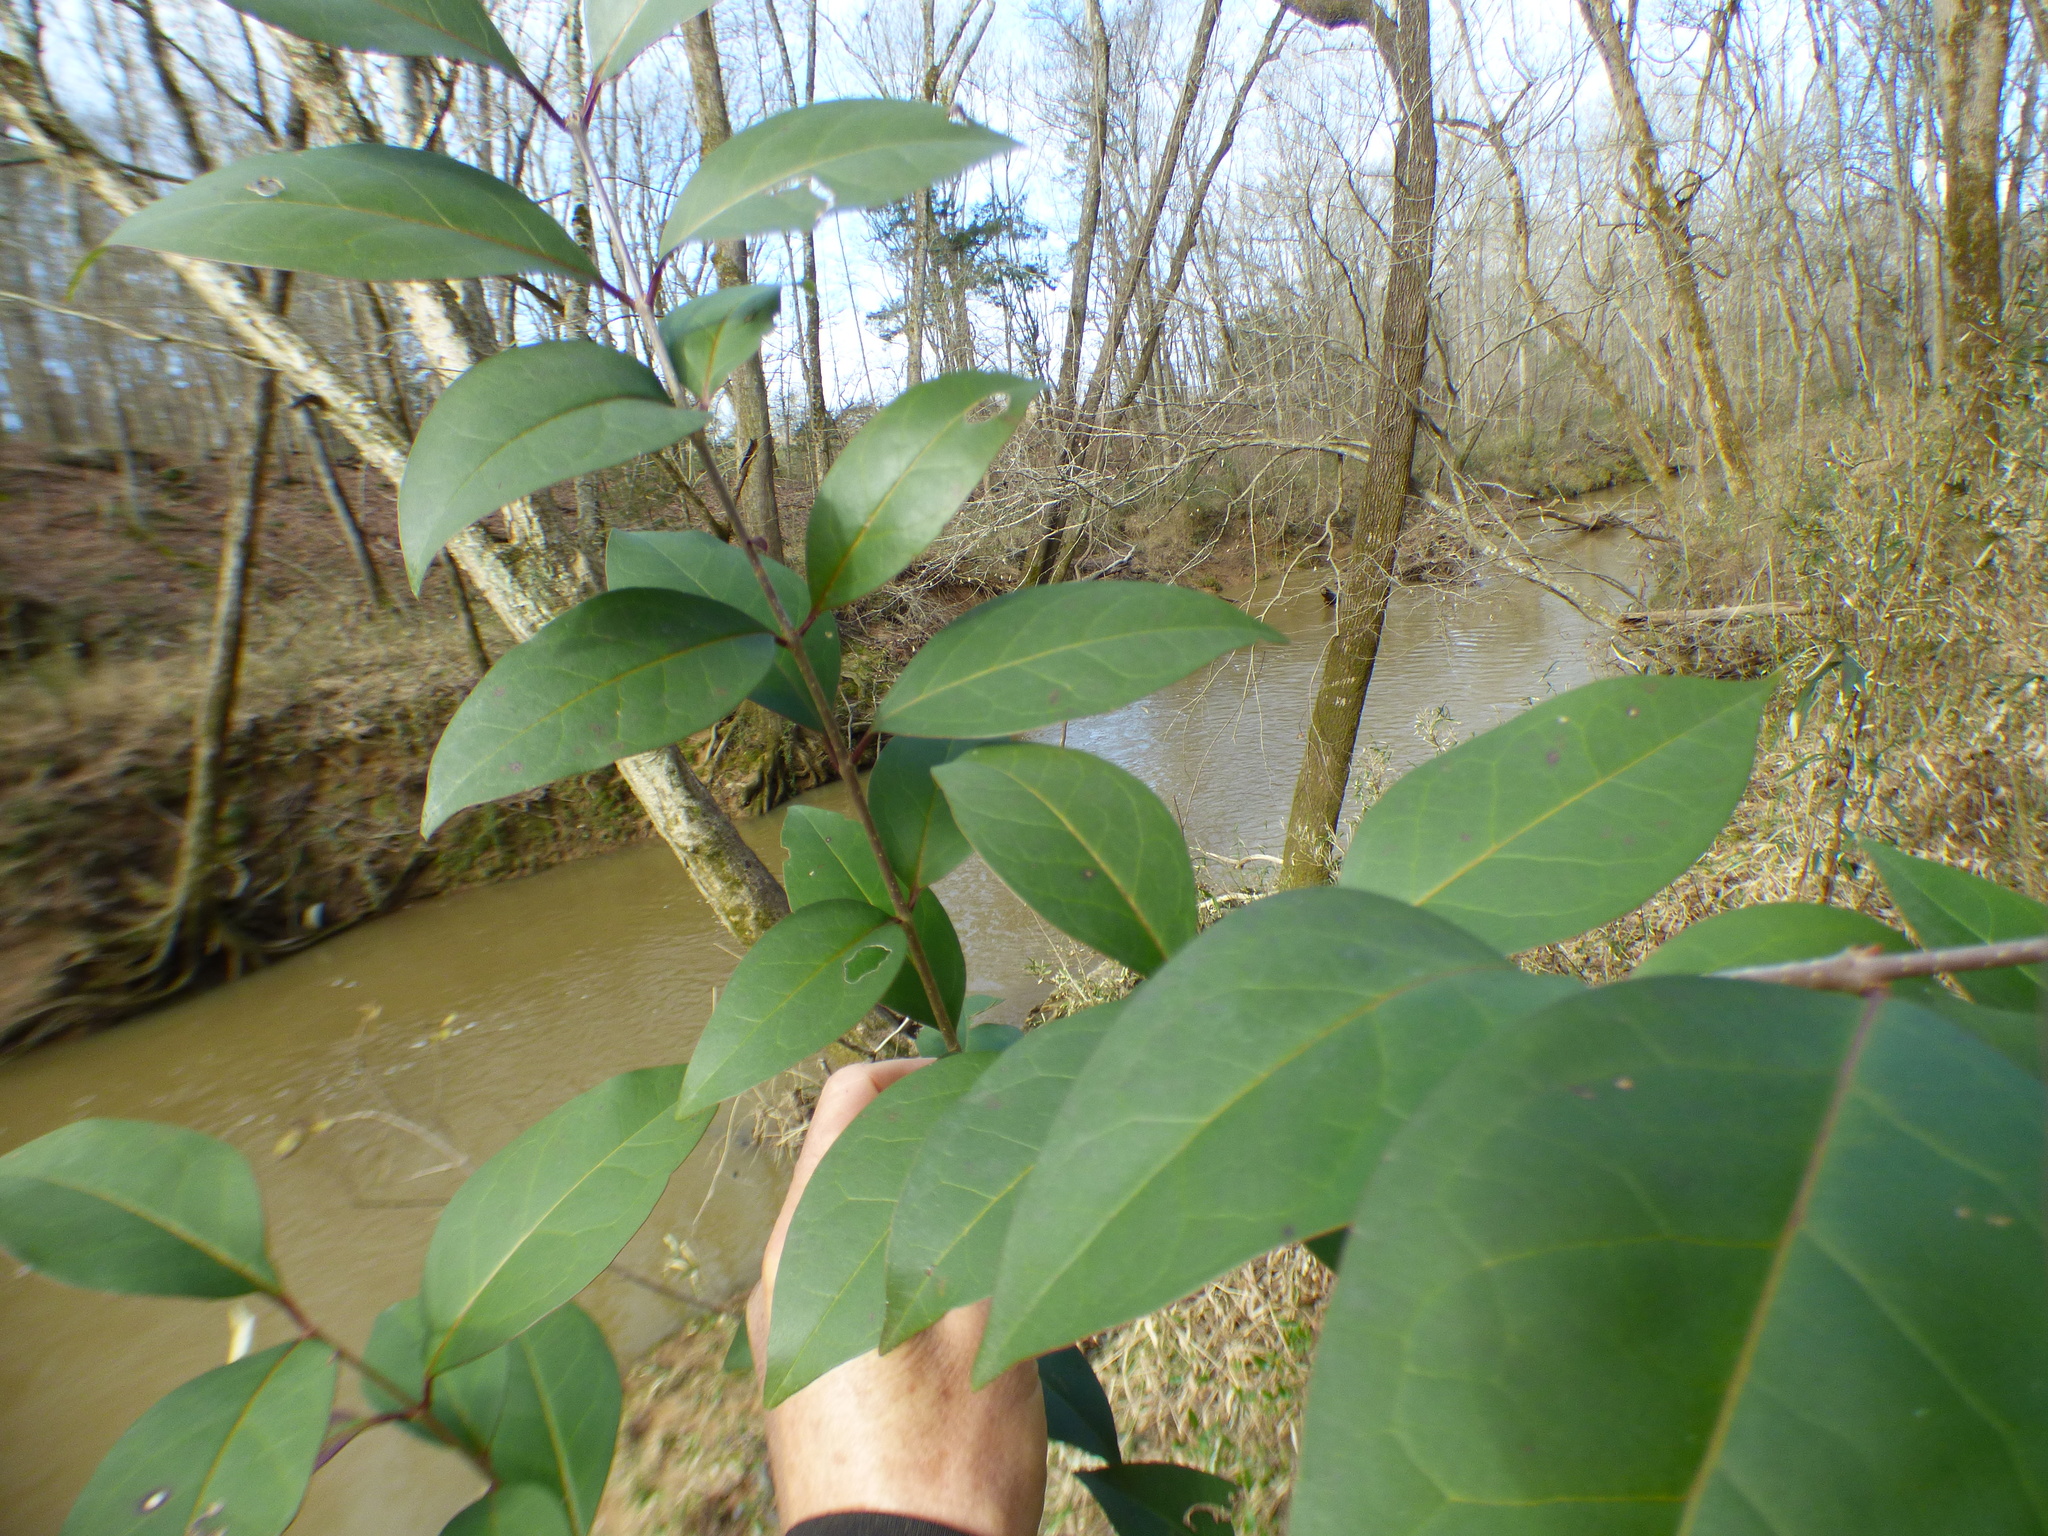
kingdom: Plantae
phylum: Tracheophyta
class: Magnoliopsida
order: Lamiales
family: Oleaceae
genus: Ligustrum
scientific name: Ligustrum lucidum
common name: Glossy privet
